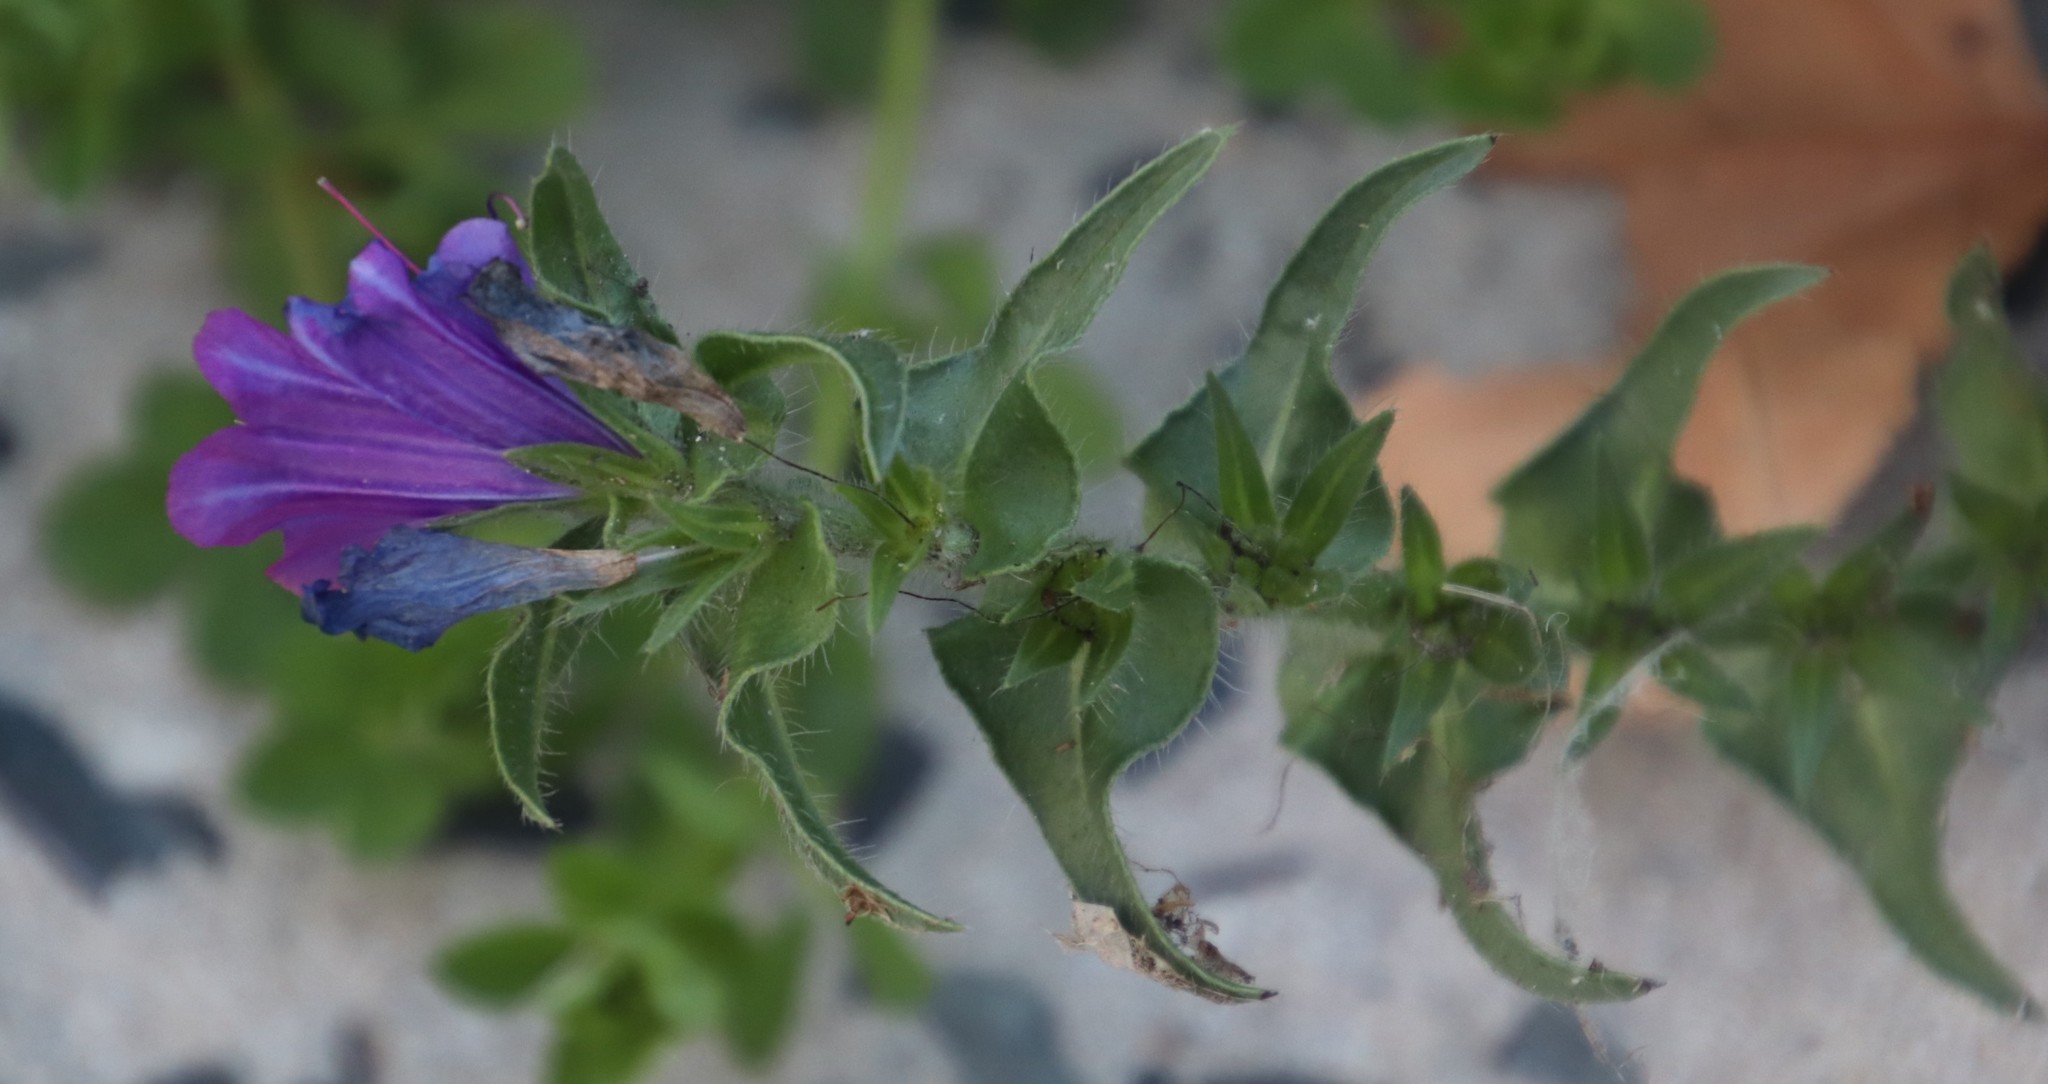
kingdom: Plantae
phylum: Tracheophyta
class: Magnoliopsida
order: Boraginales
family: Boraginaceae
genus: Echium
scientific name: Echium plantagineum
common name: Purple viper's-bugloss
